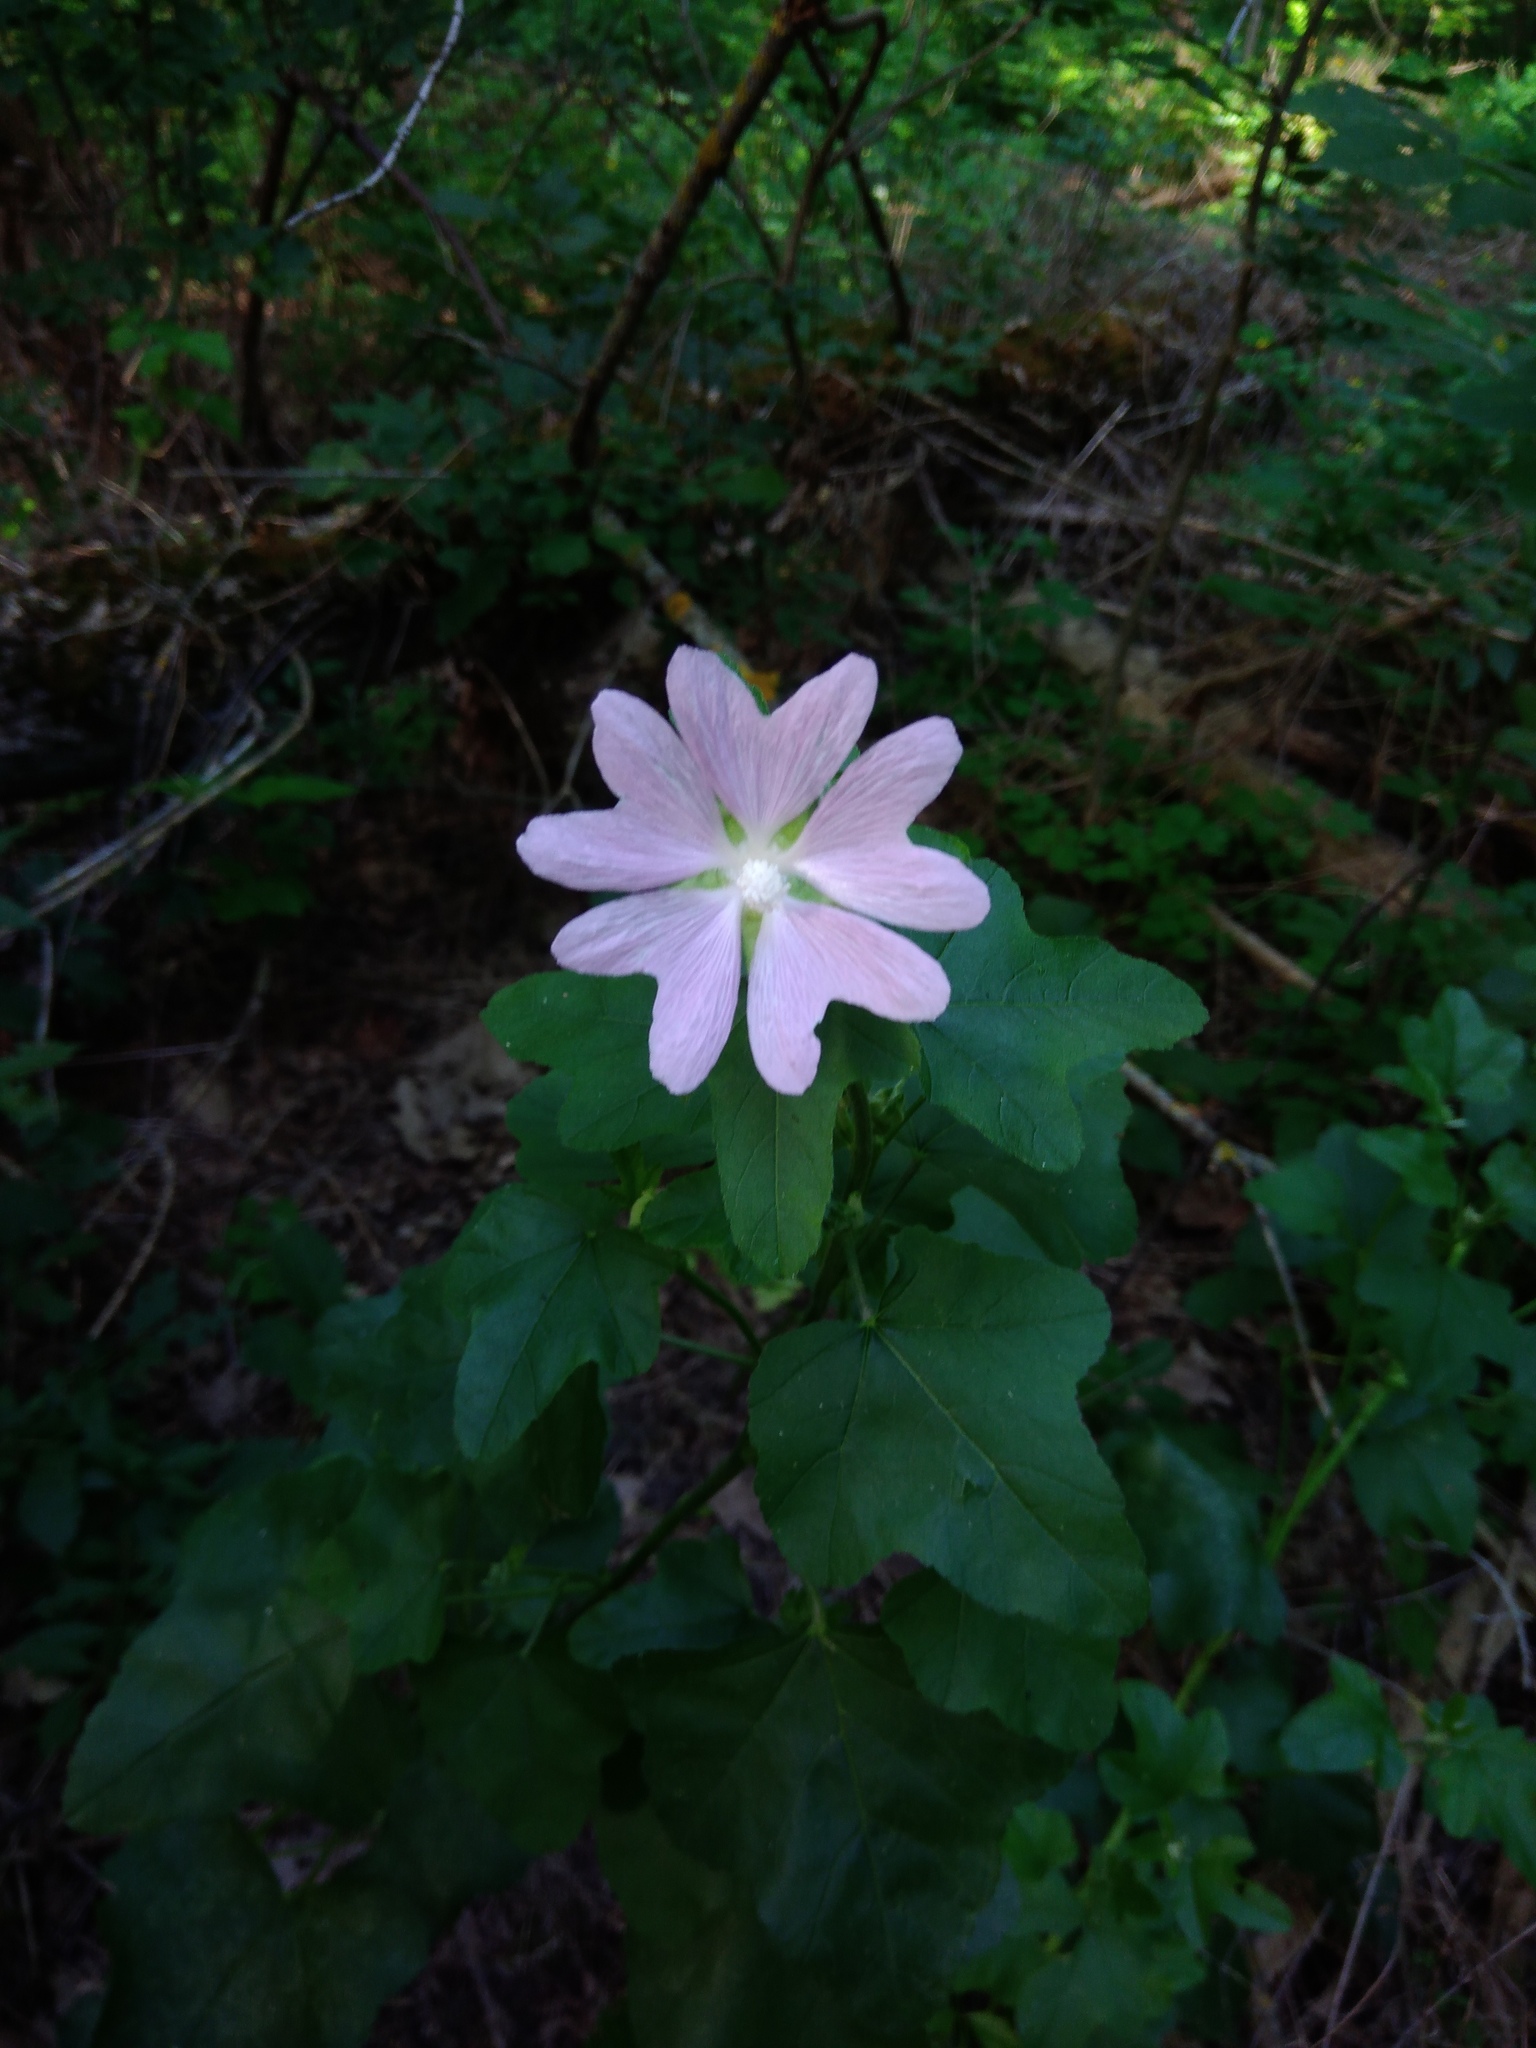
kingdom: Plantae
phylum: Tracheophyta
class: Magnoliopsida
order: Malvales
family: Malvaceae
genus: Malva
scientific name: Malva thuringiaca
